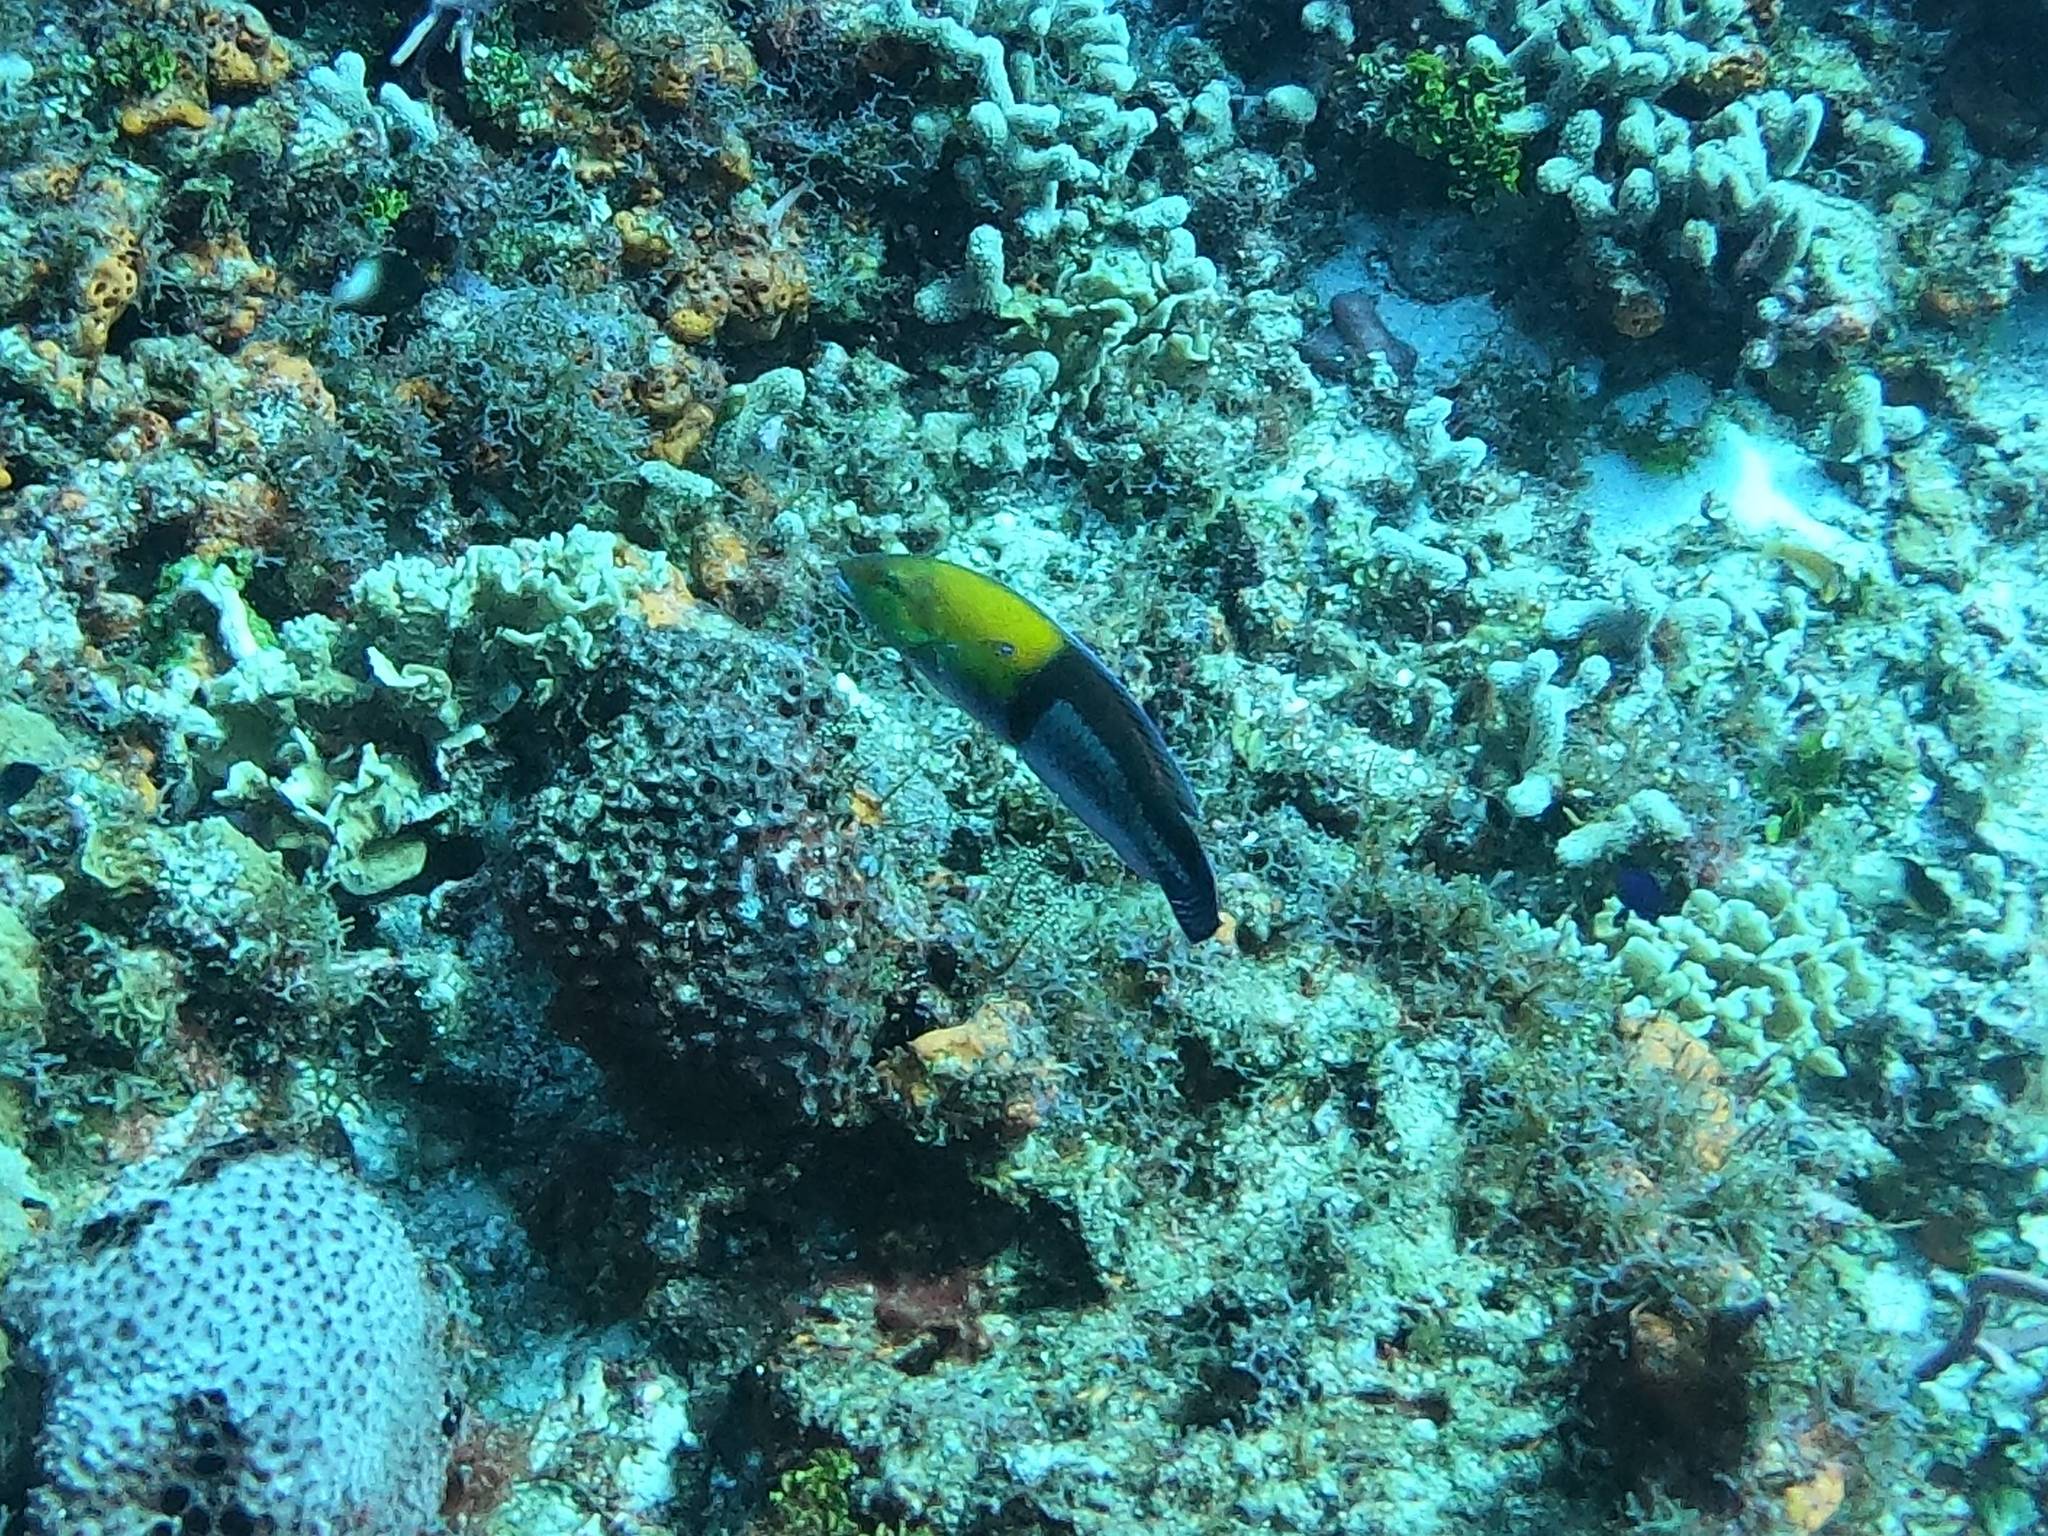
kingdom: Animalia
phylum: Chordata
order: Perciformes
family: Labridae
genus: Halichoeres
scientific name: Halichoeres garnoti
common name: Yellowhead wrasse
